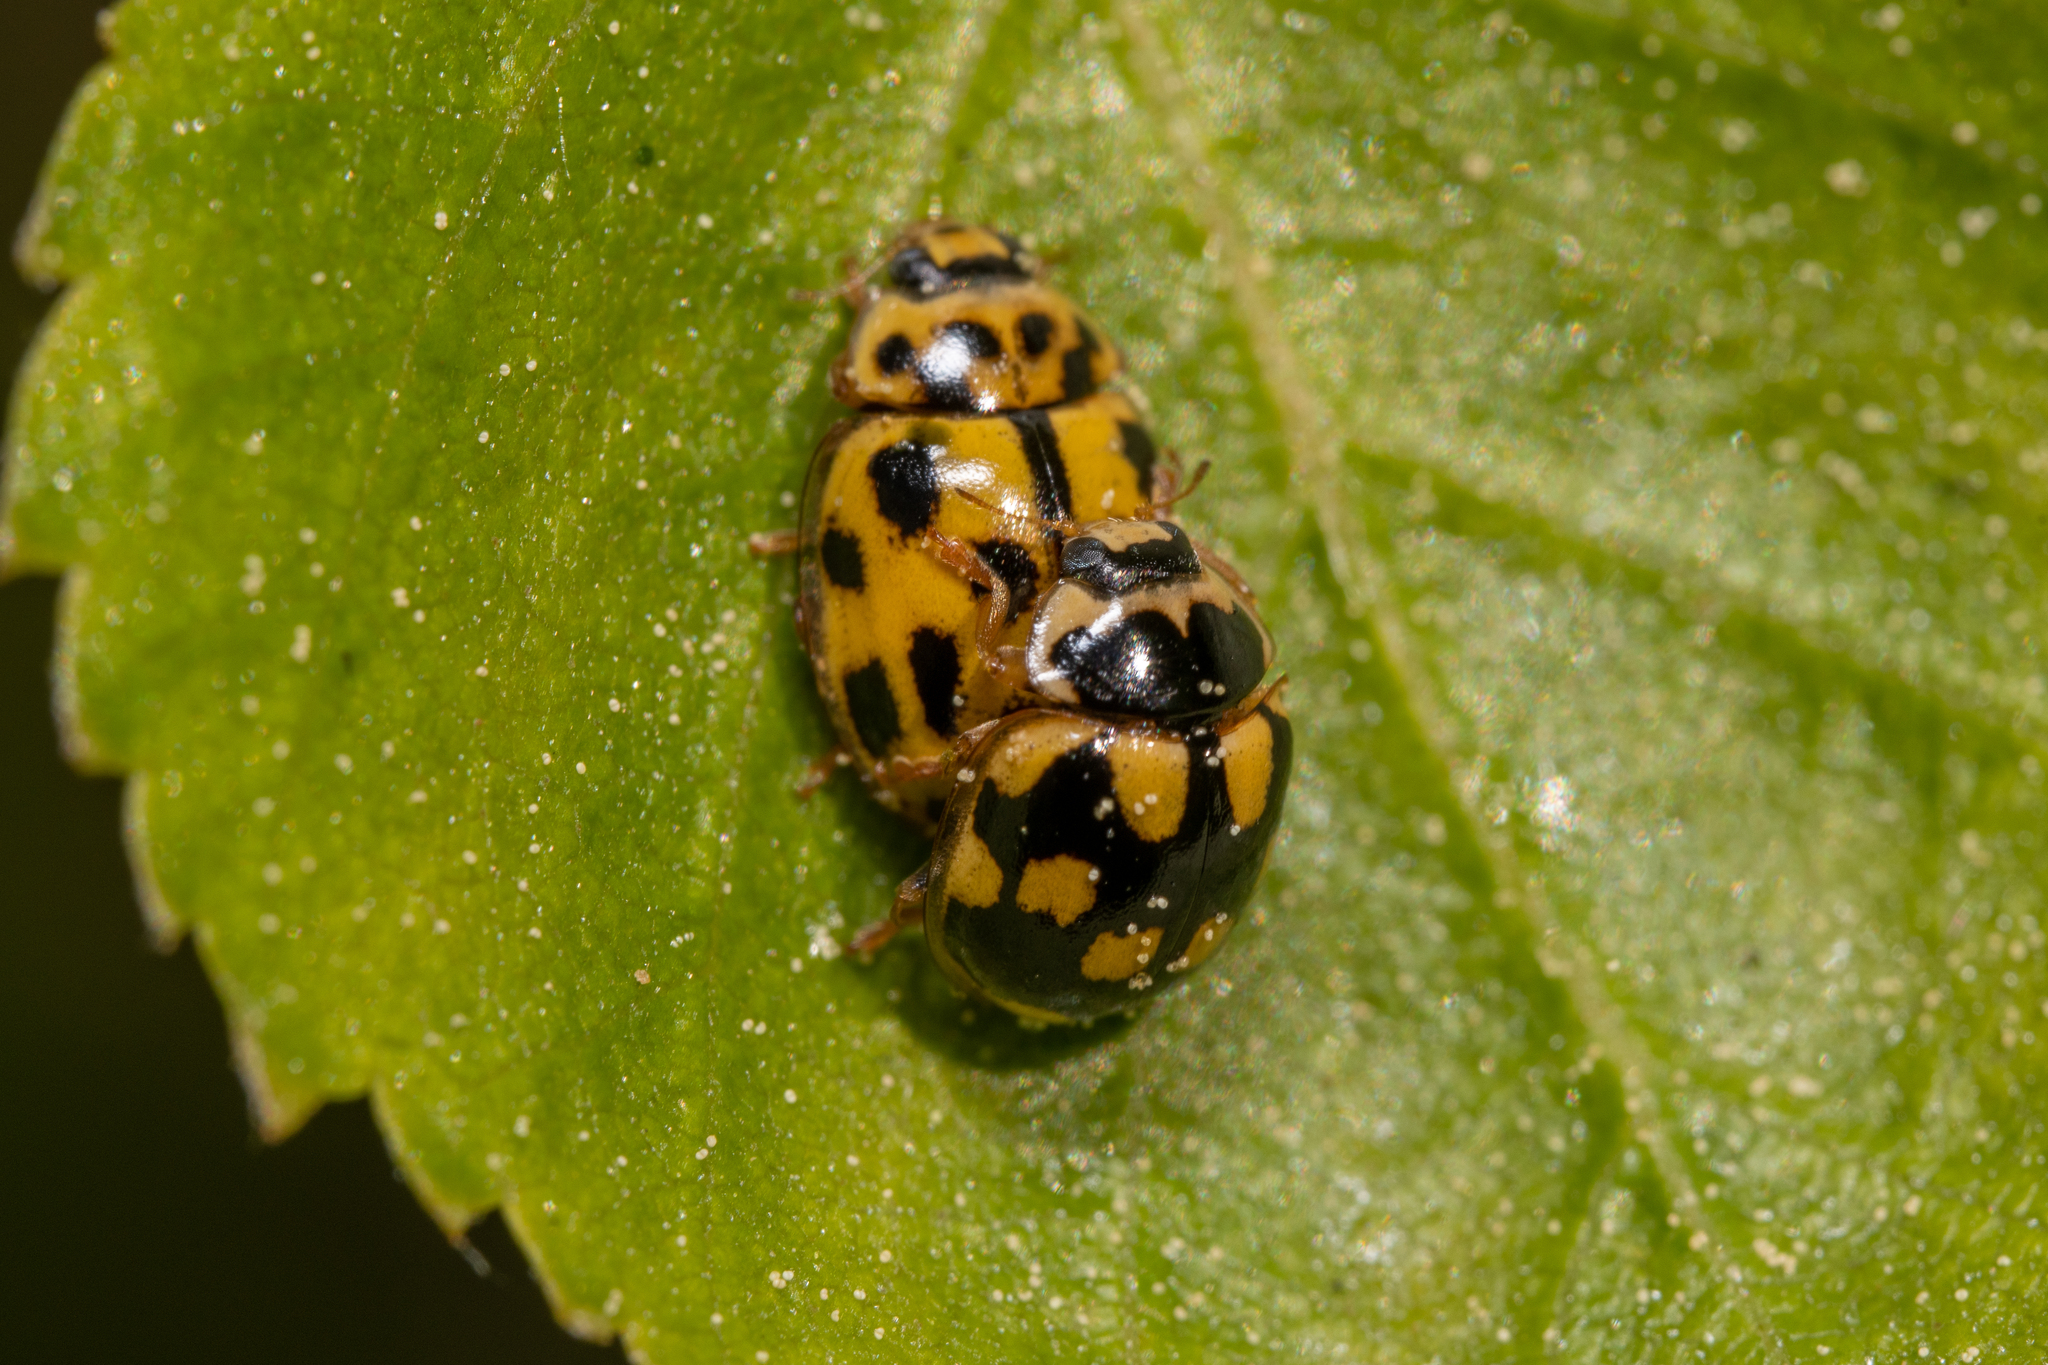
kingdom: Animalia
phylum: Arthropoda
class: Insecta
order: Coleoptera
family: Coccinellidae
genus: Propylaea
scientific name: Propylaea quatuordecimpunctata
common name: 14-spotted ladybird beetle
